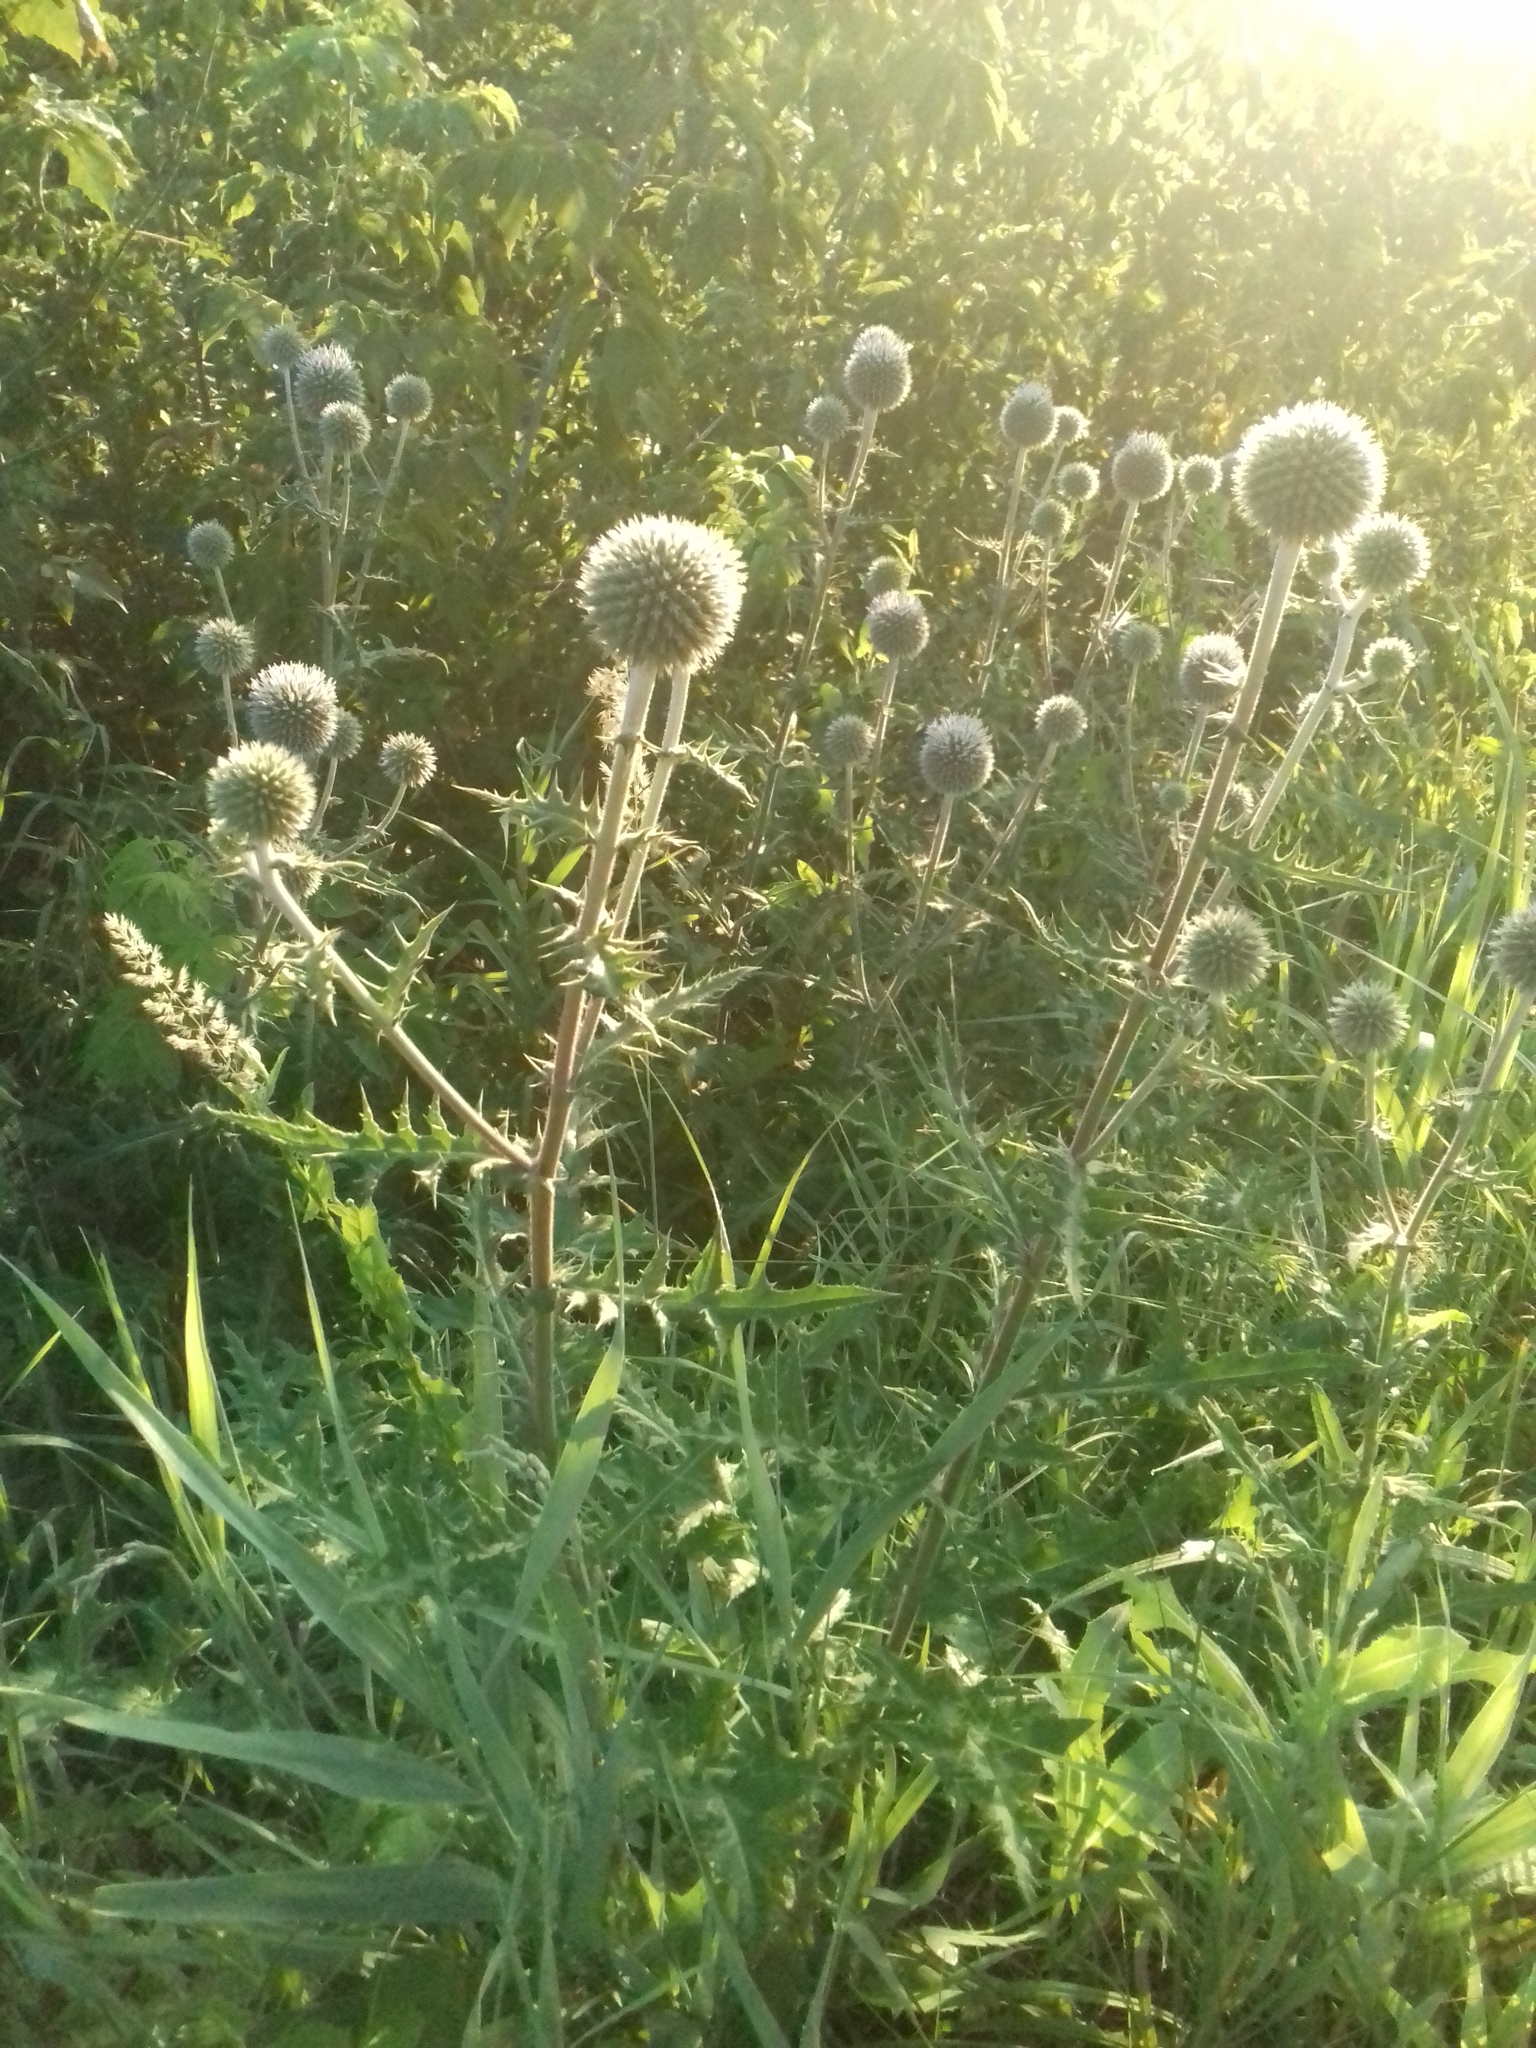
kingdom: Plantae
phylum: Tracheophyta
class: Magnoliopsida
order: Asterales
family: Asteraceae
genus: Echinops
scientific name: Echinops sphaerocephalus
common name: Glandular globe-thistle
